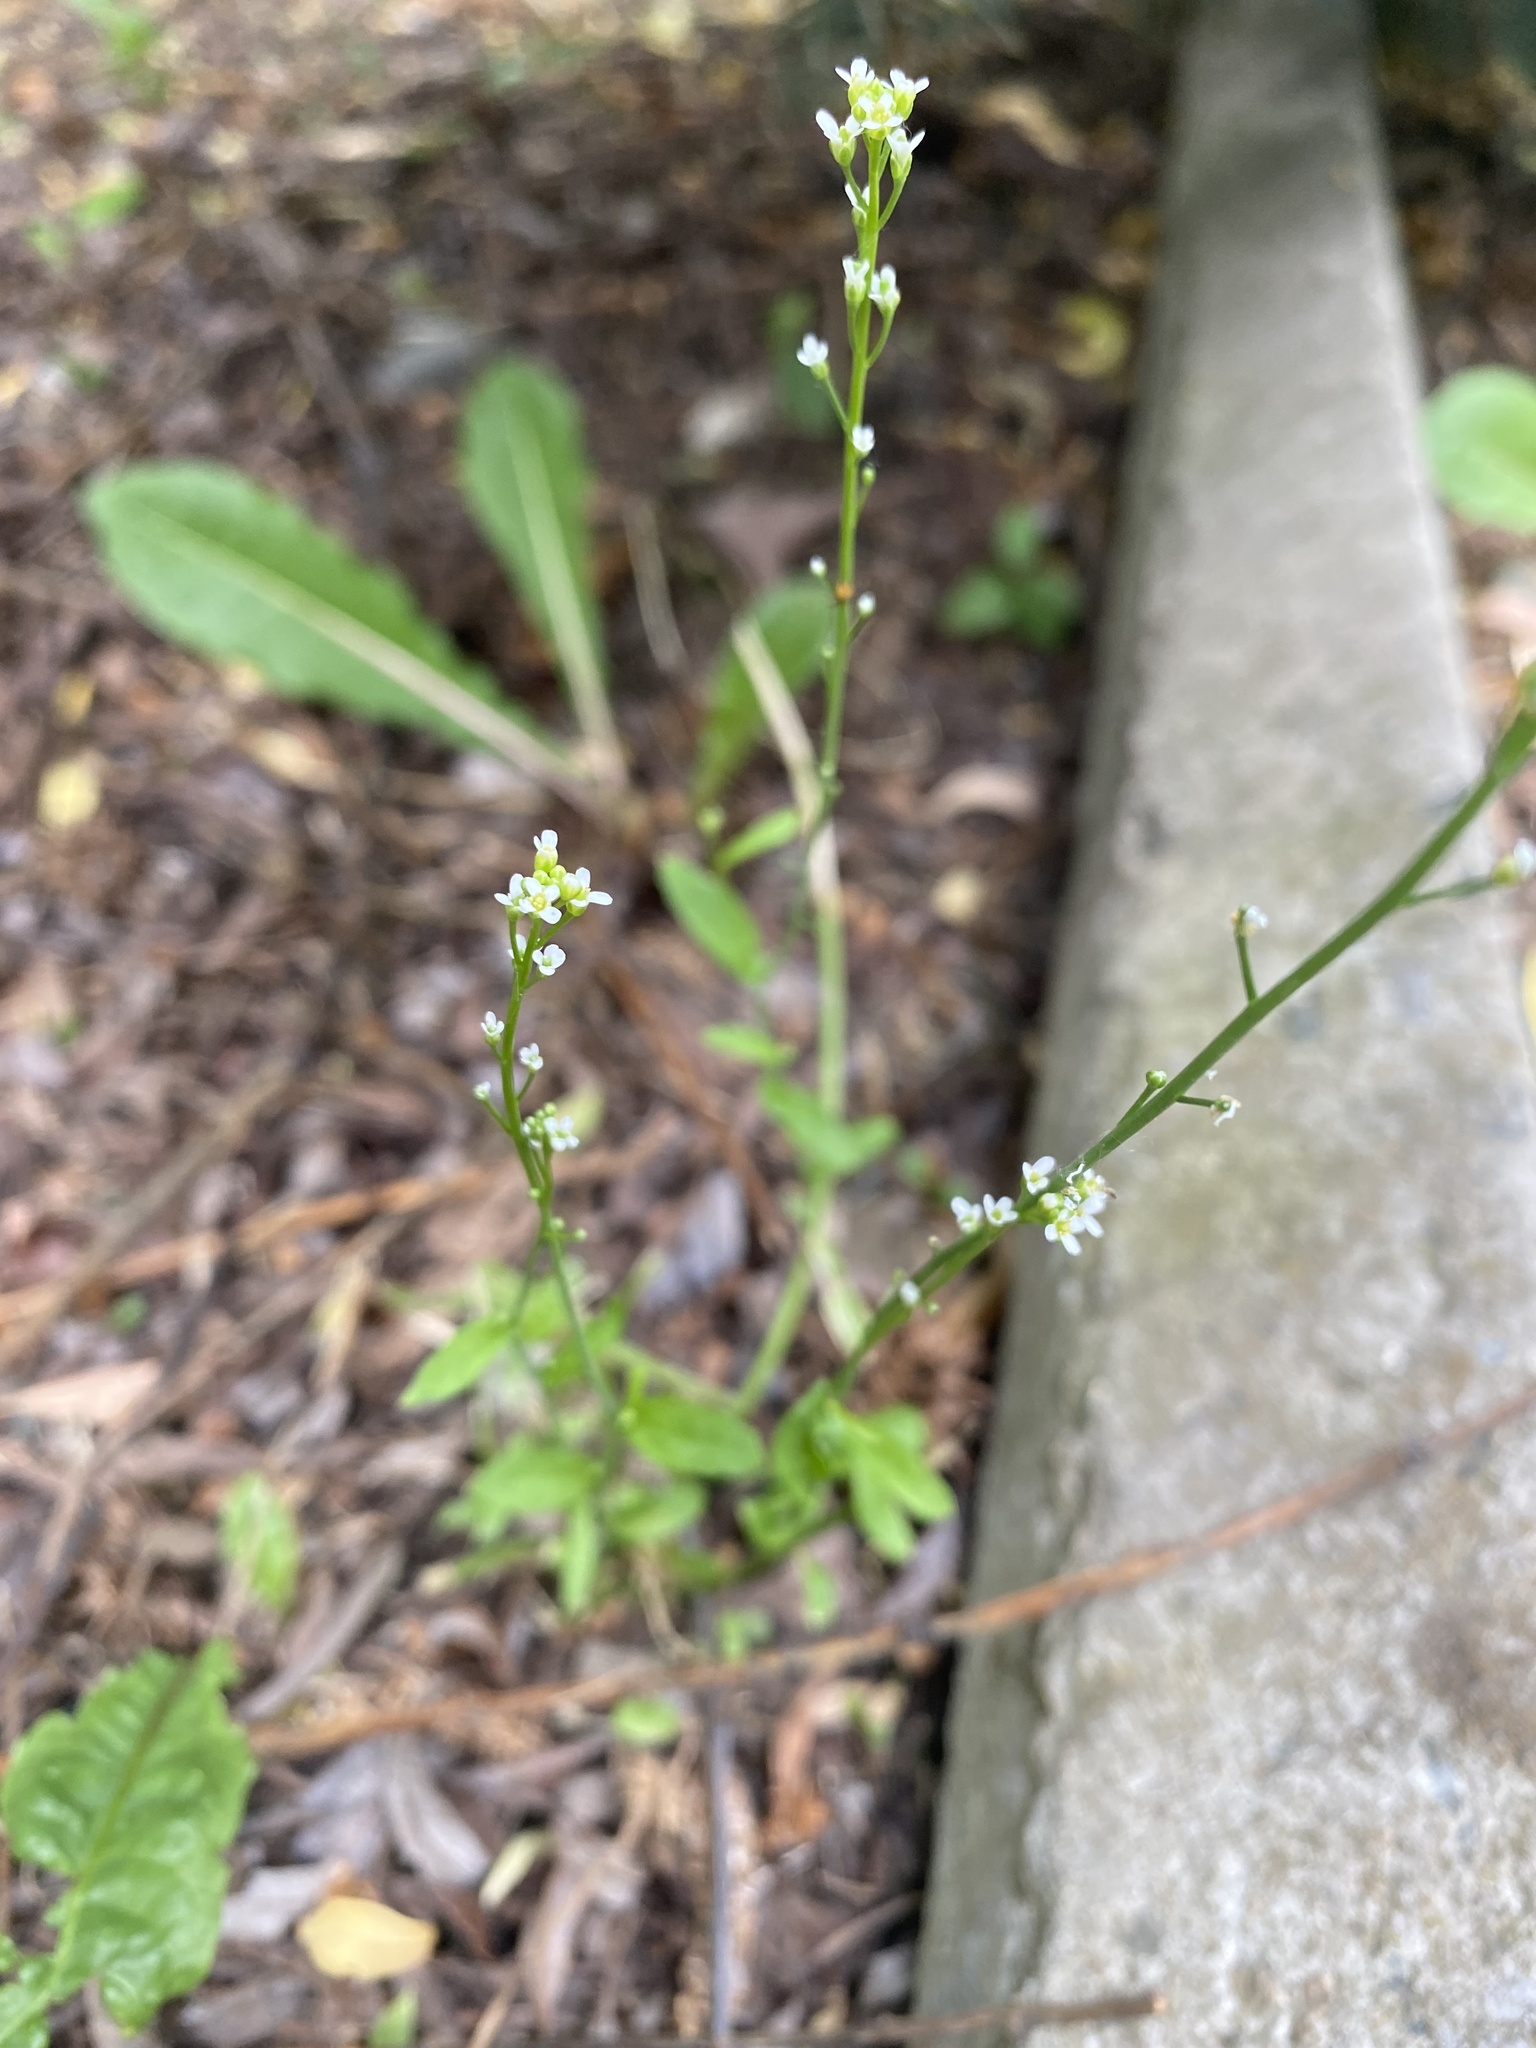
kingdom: Plantae
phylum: Tracheophyta
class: Magnoliopsida
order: Brassicales
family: Brassicaceae
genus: Calepina
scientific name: Calepina irregularis
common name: White ballmustard
